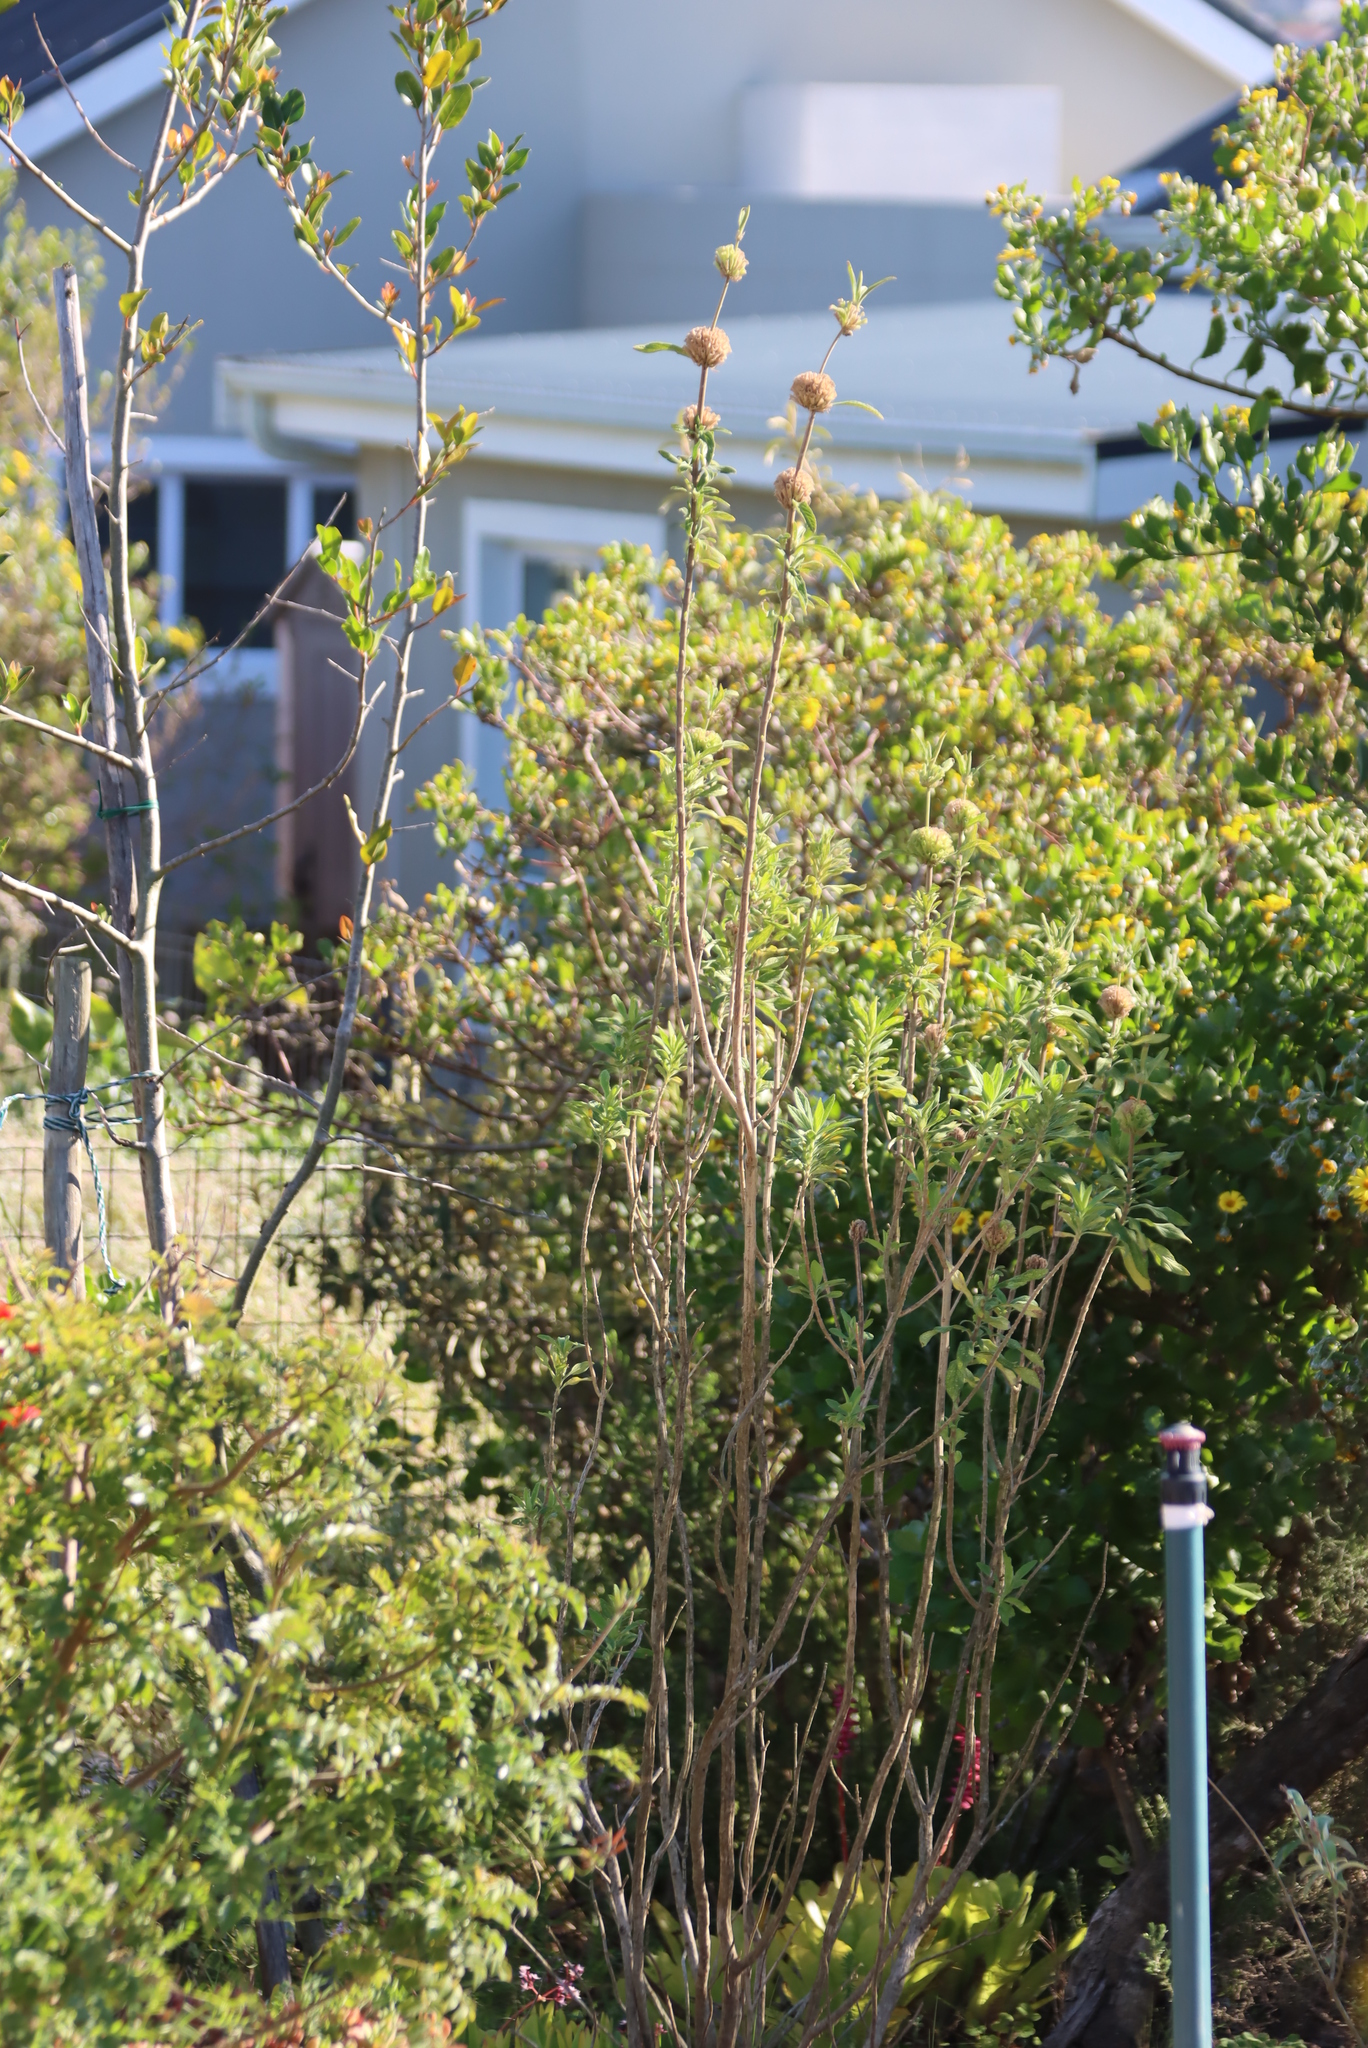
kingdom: Plantae
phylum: Tracheophyta
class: Magnoliopsida
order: Lamiales
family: Lamiaceae
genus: Leonotis
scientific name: Leonotis leonurus
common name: Lion's ear
